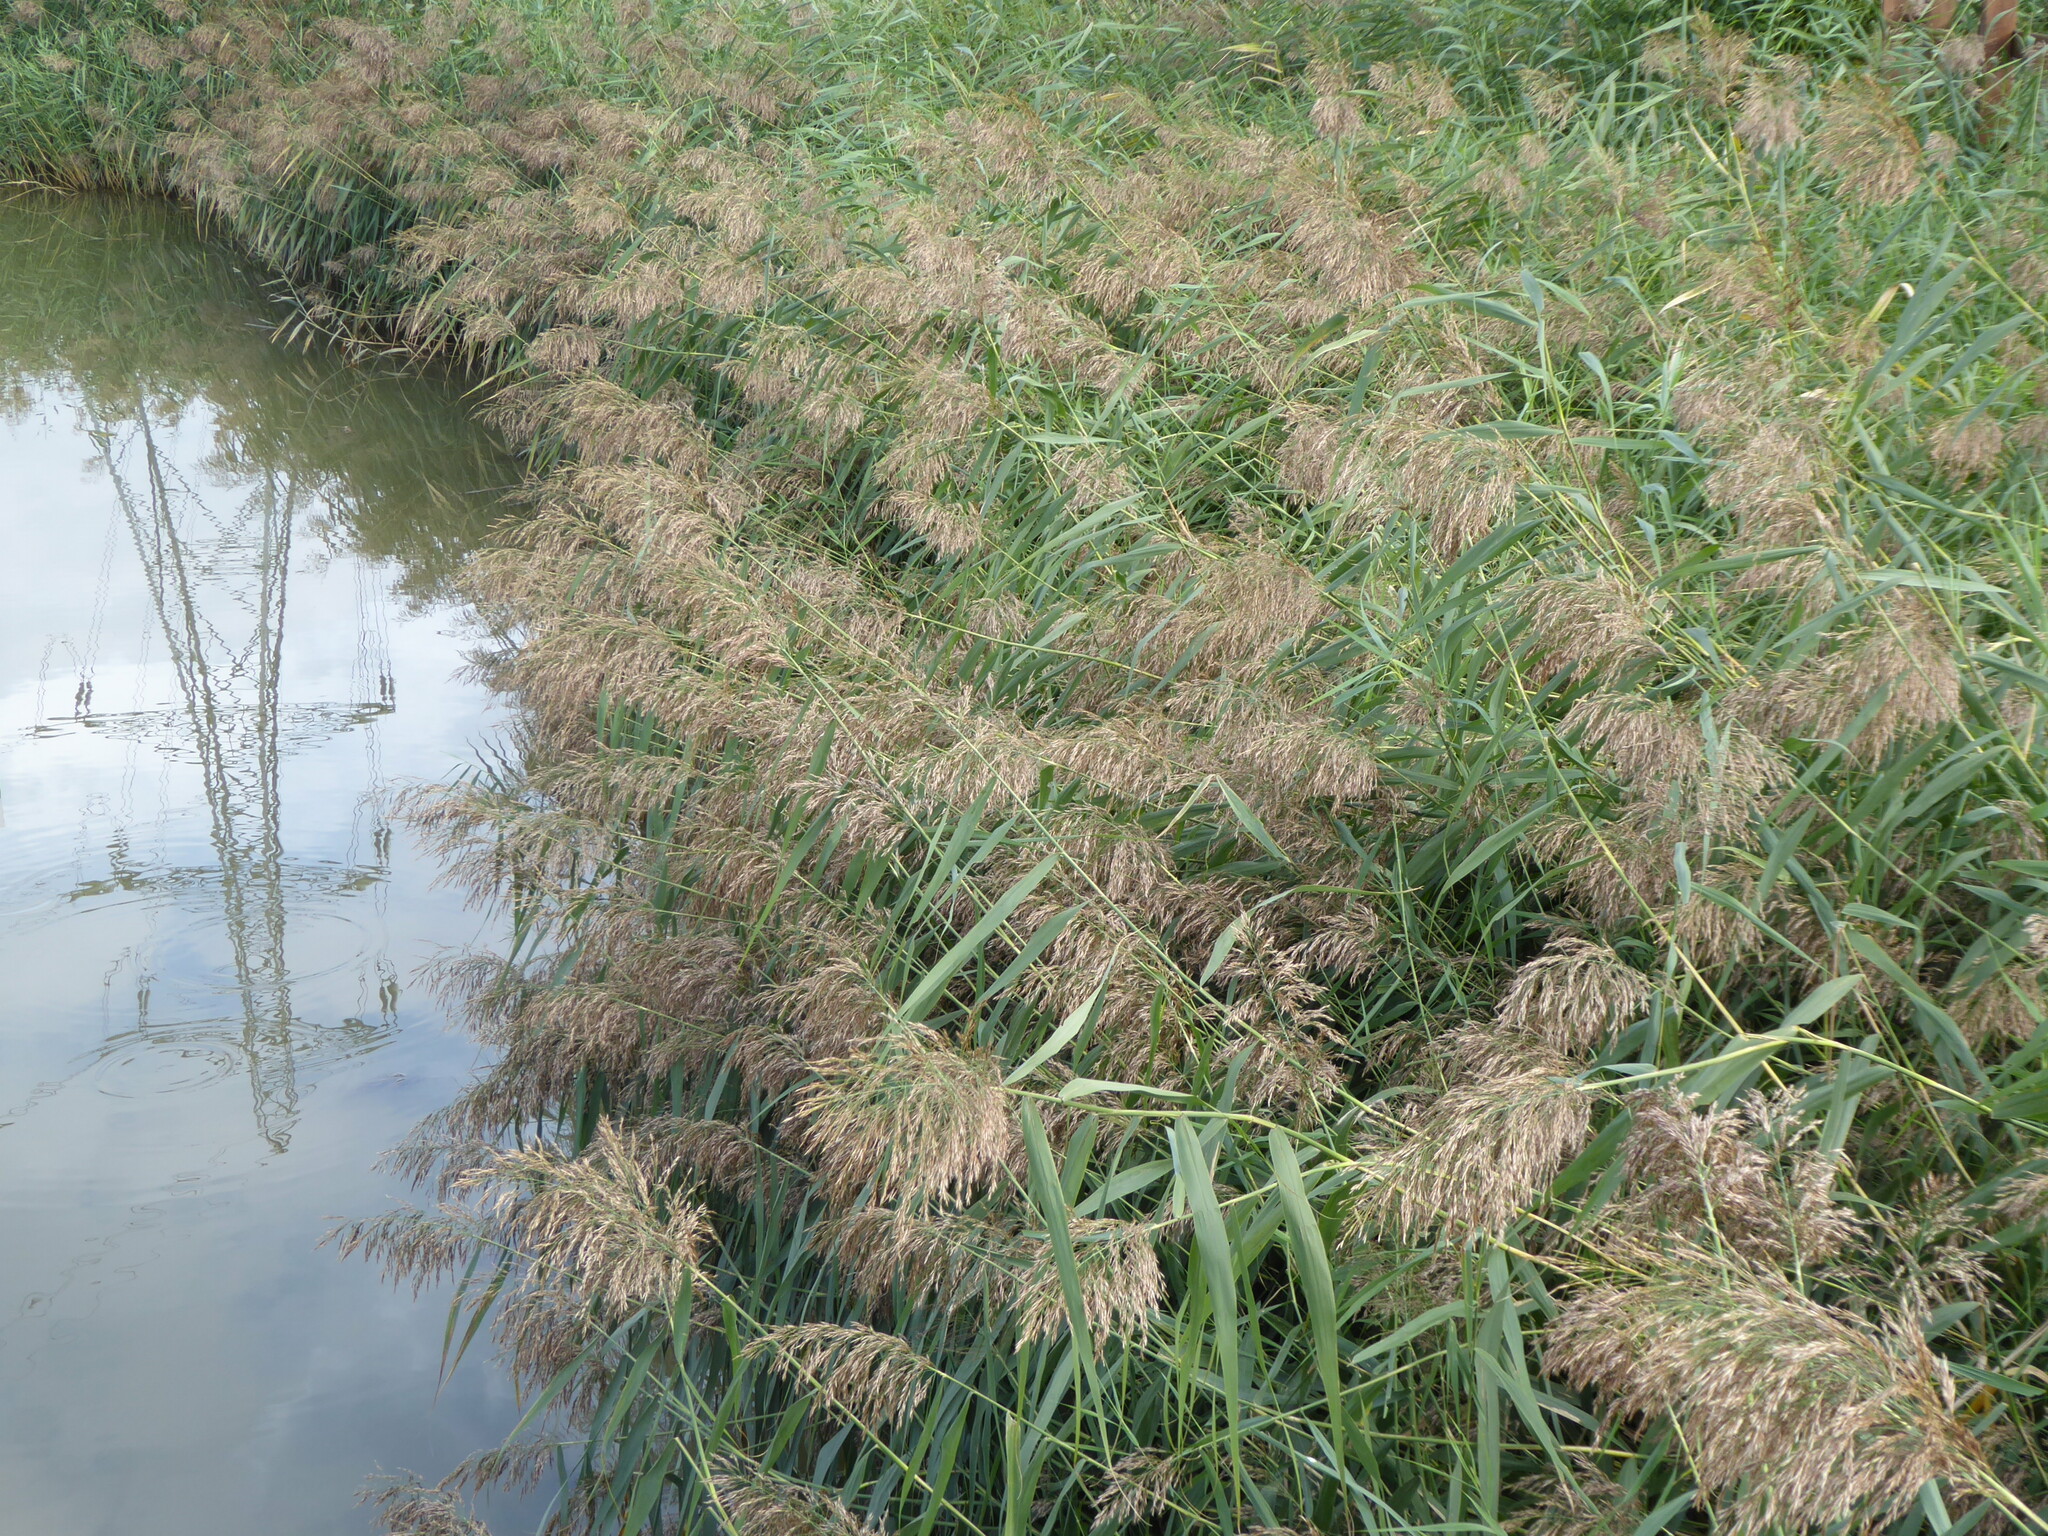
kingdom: Plantae
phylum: Tracheophyta
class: Liliopsida
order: Poales
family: Poaceae
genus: Phragmites
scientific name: Phragmites australis
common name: Common reed
